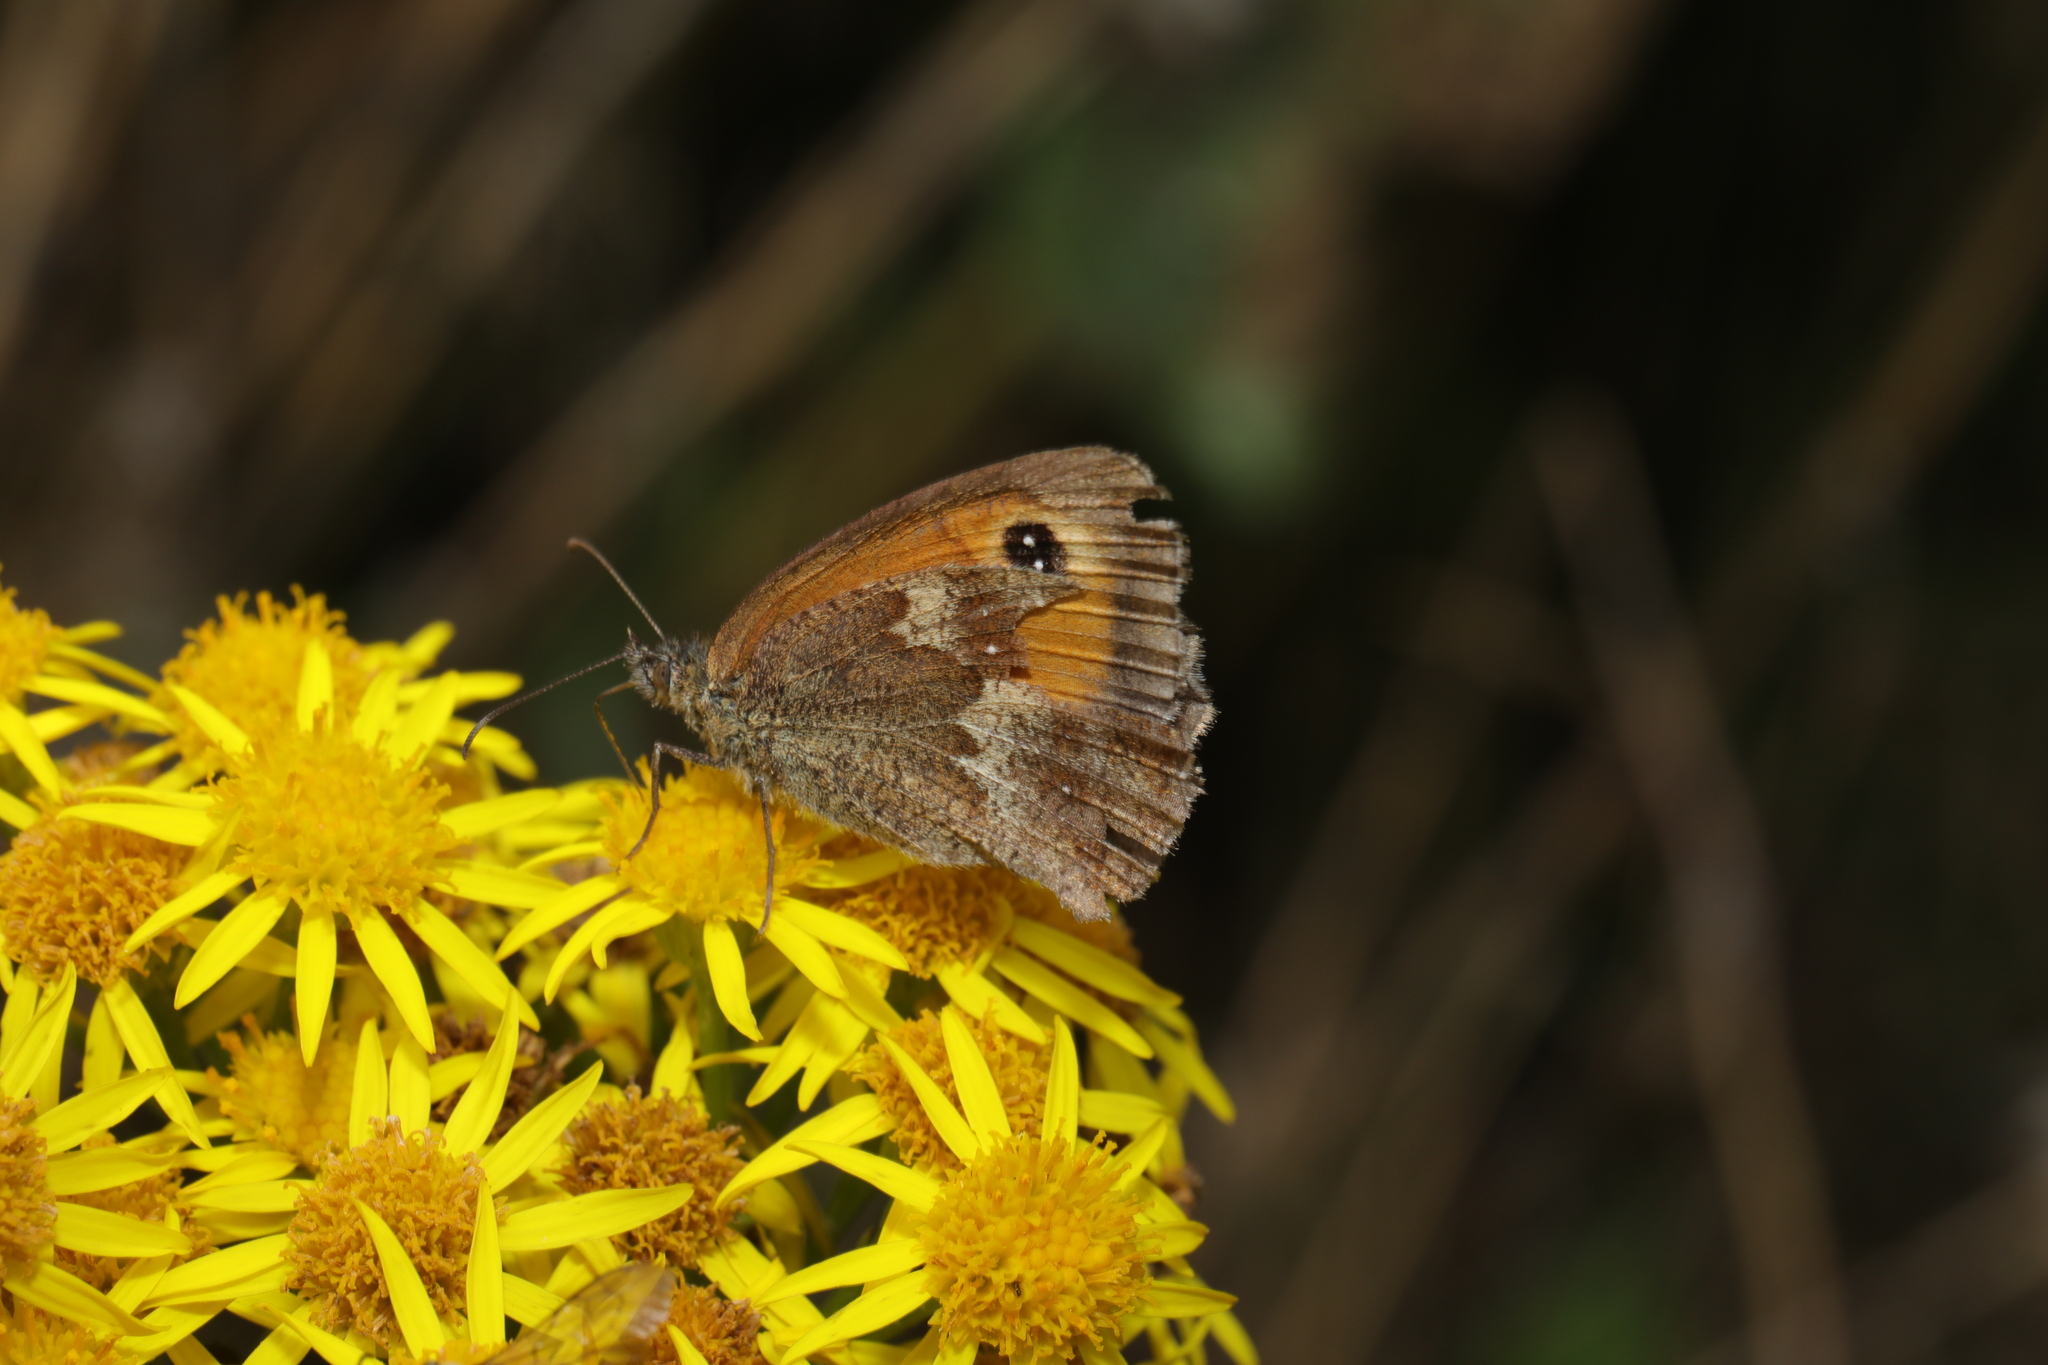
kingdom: Animalia
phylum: Arthropoda
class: Insecta
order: Lepidoptera
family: Nymphalidae
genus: Pyronia
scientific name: Pyronia tithonus
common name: Gatekeeper
